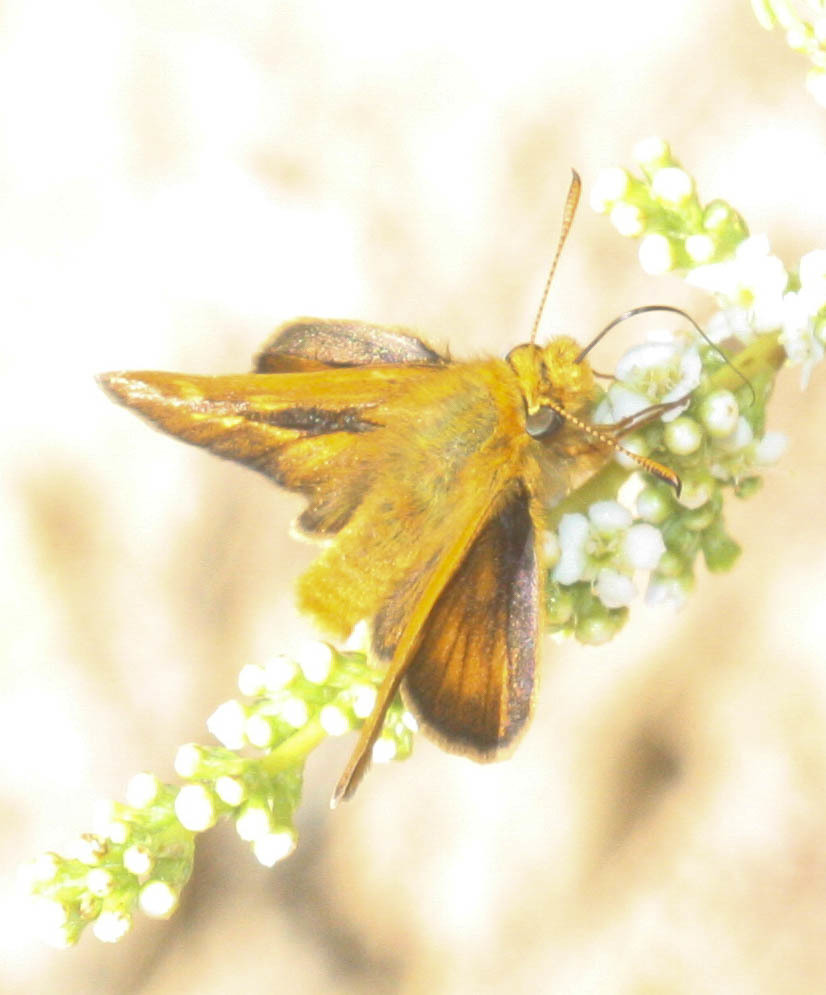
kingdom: Animalia
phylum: Arthropoda
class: Insecta
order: Lepidoptera
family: Hesperiidae
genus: Ochlodes
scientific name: Ochlodes agricola
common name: Rural skipper
